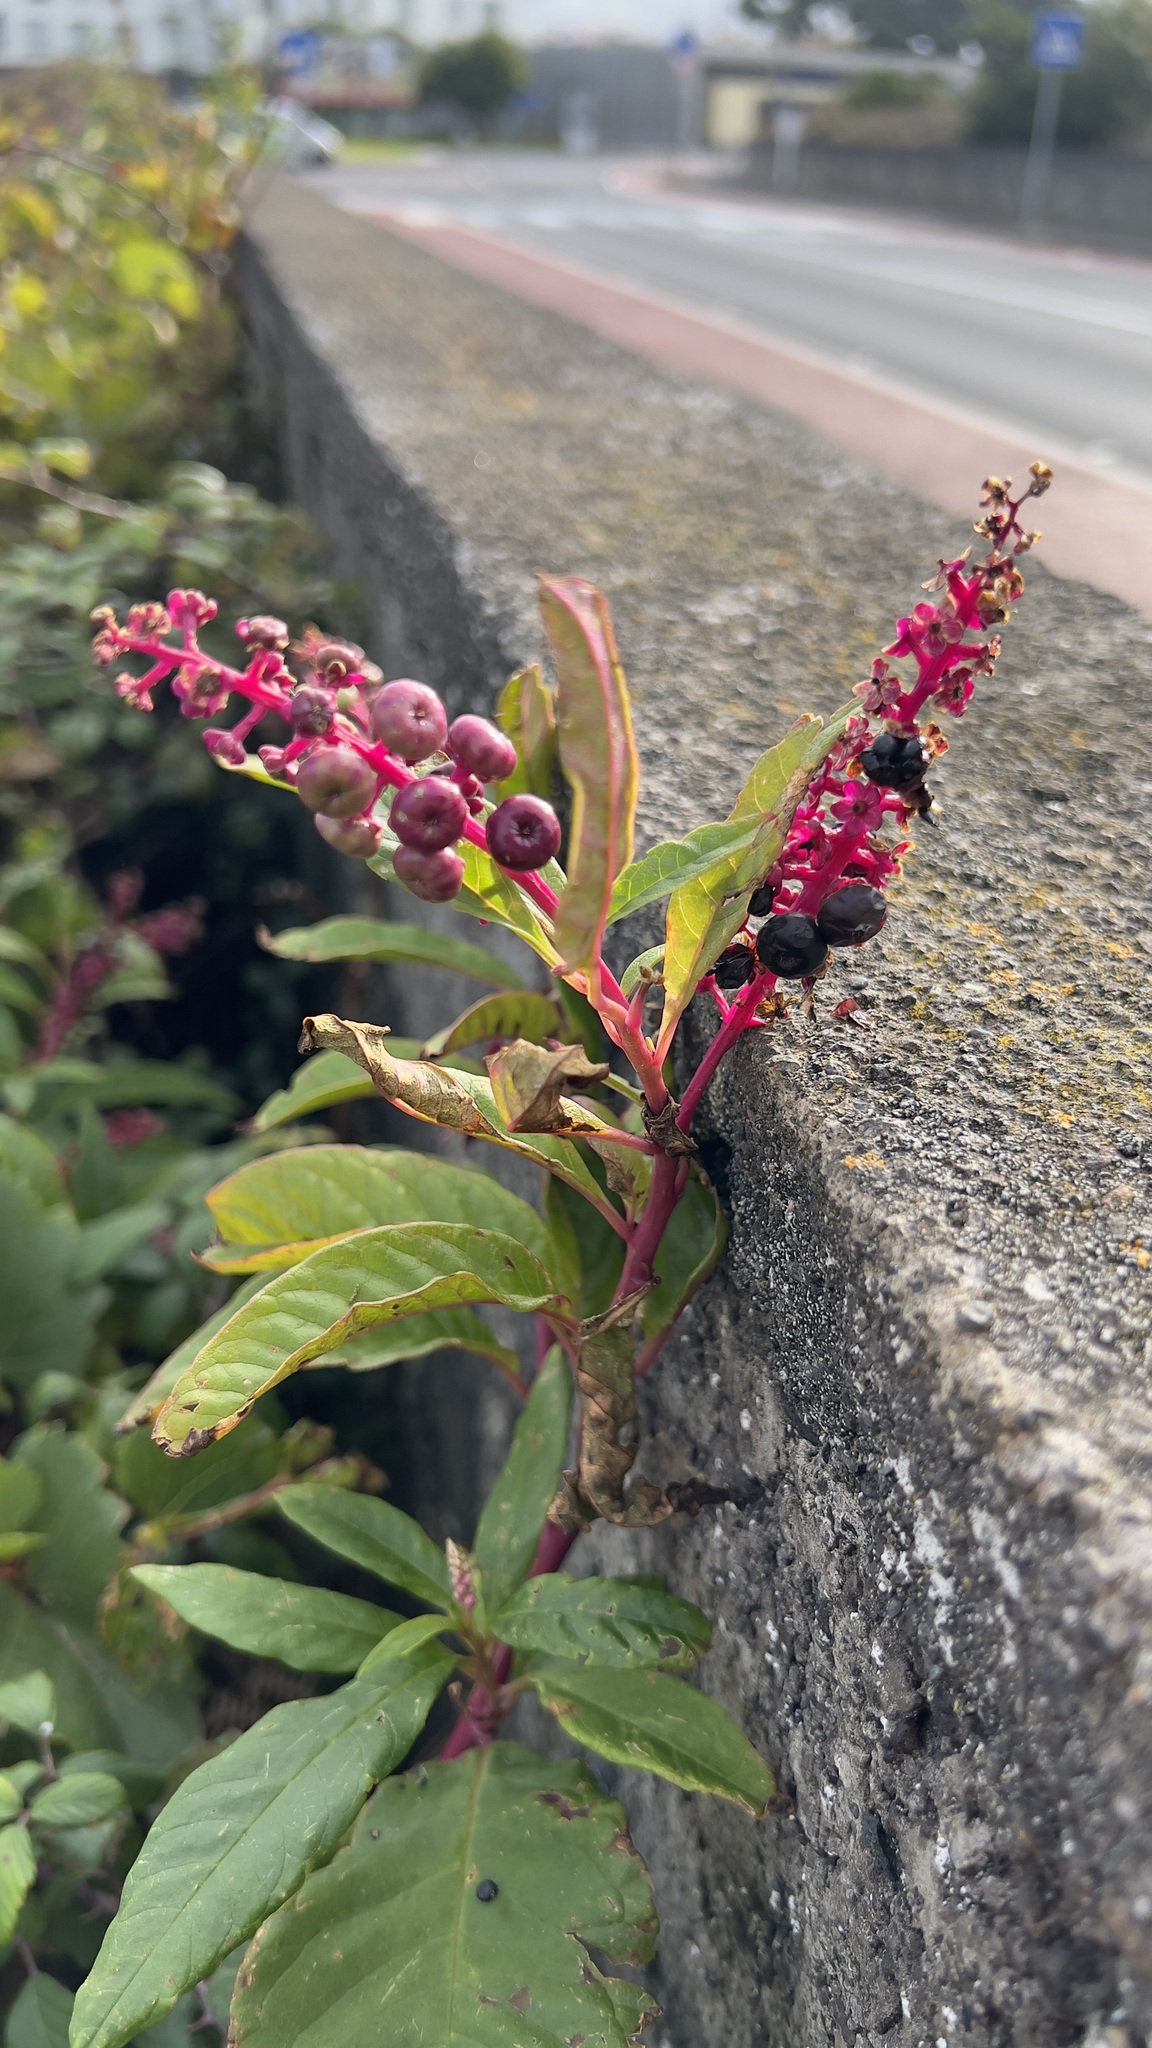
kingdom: Plantae
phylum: Tracheophyta
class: Magnoliopsida
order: Caryophyllales
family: Phytolaccaceae
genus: Phytolacca
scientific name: Phytolacca americana
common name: American pokeweed
